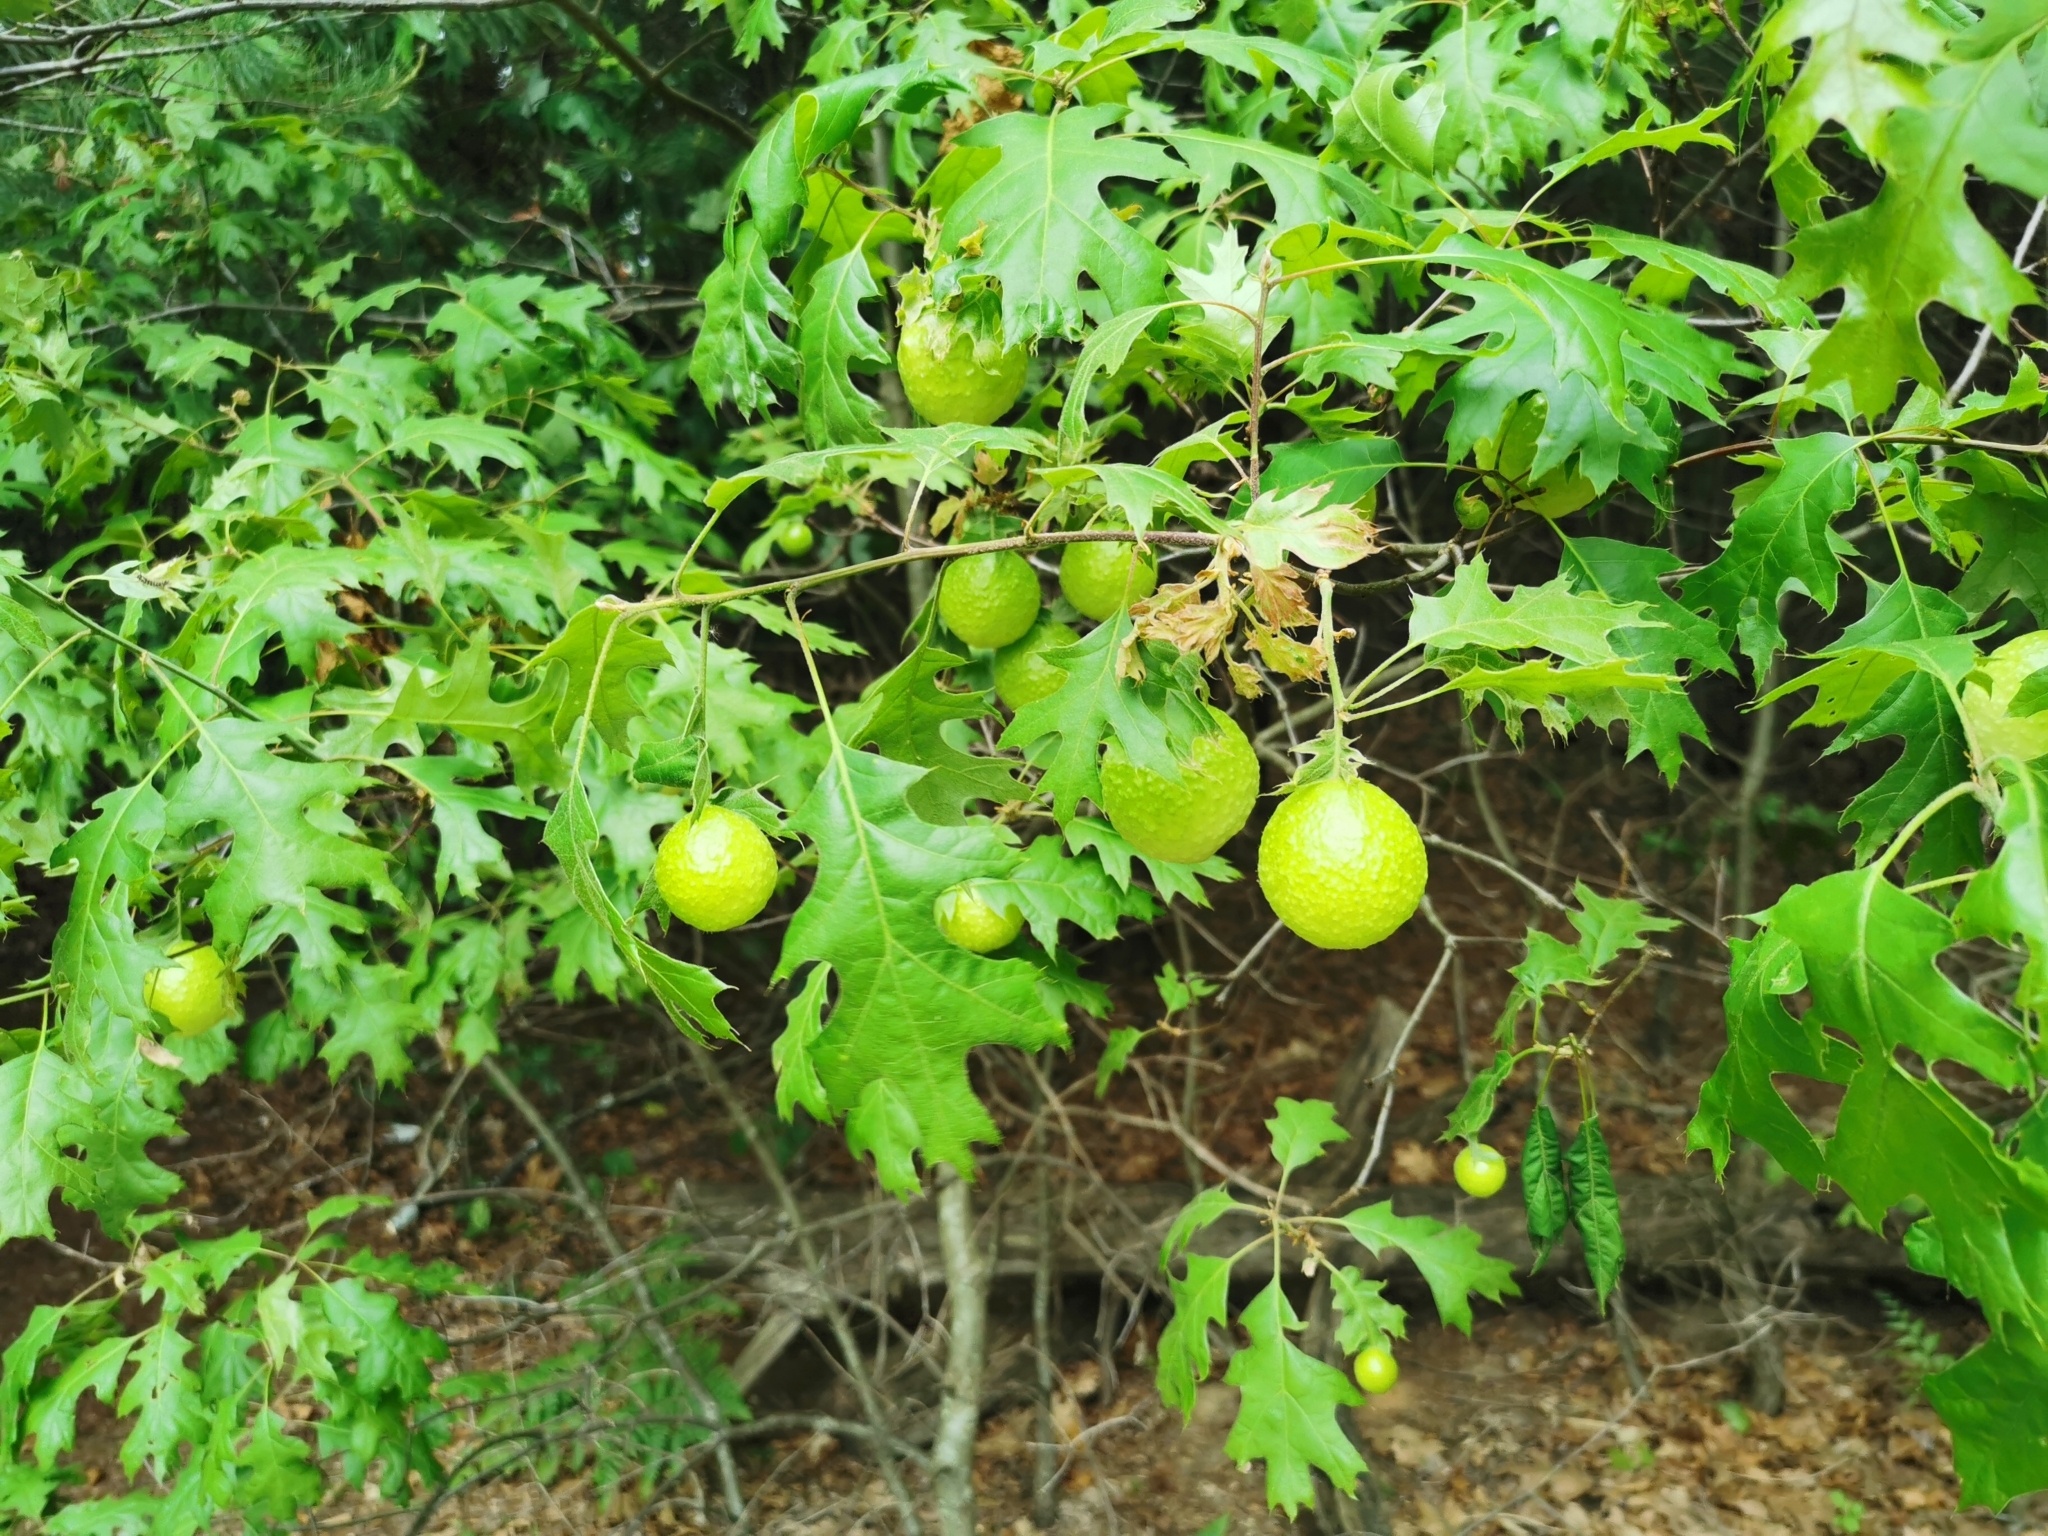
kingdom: Animalia
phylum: Arthropoda
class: Insecta
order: Hymenoptera
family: Cynipidae
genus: Amphibolips
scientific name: Amphibolips
